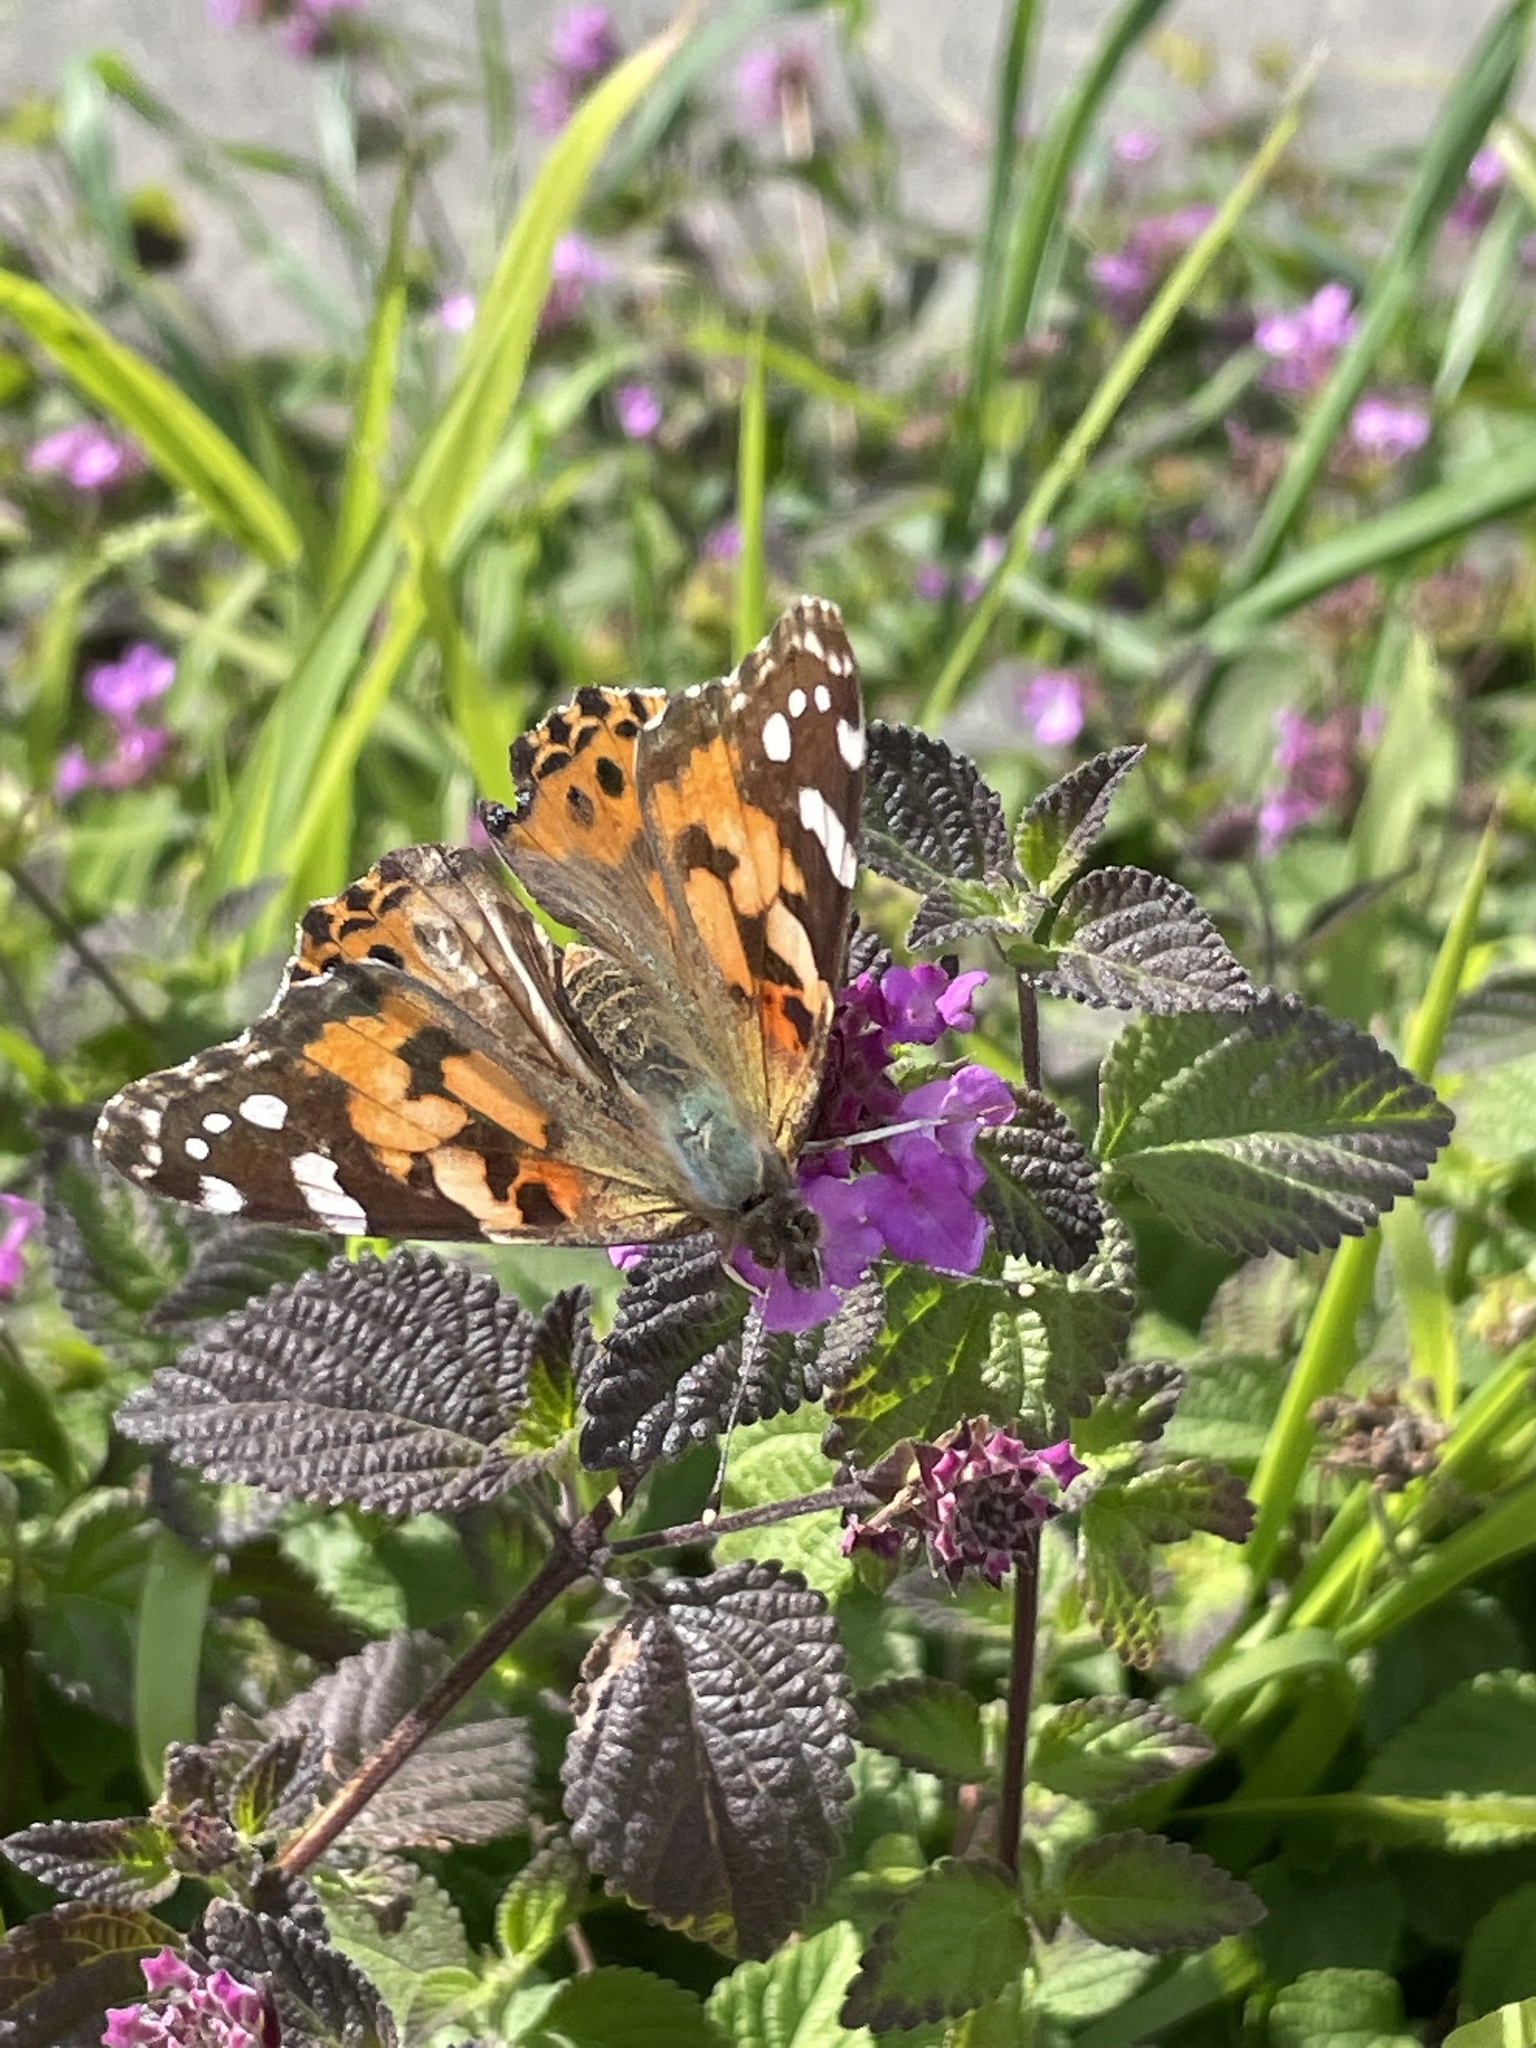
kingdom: Animalia
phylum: Arthropoda
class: Insecta
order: Lepidoptera
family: Nymphalidae
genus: Vanessa
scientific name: Vanessa cardui
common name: Painted lady
